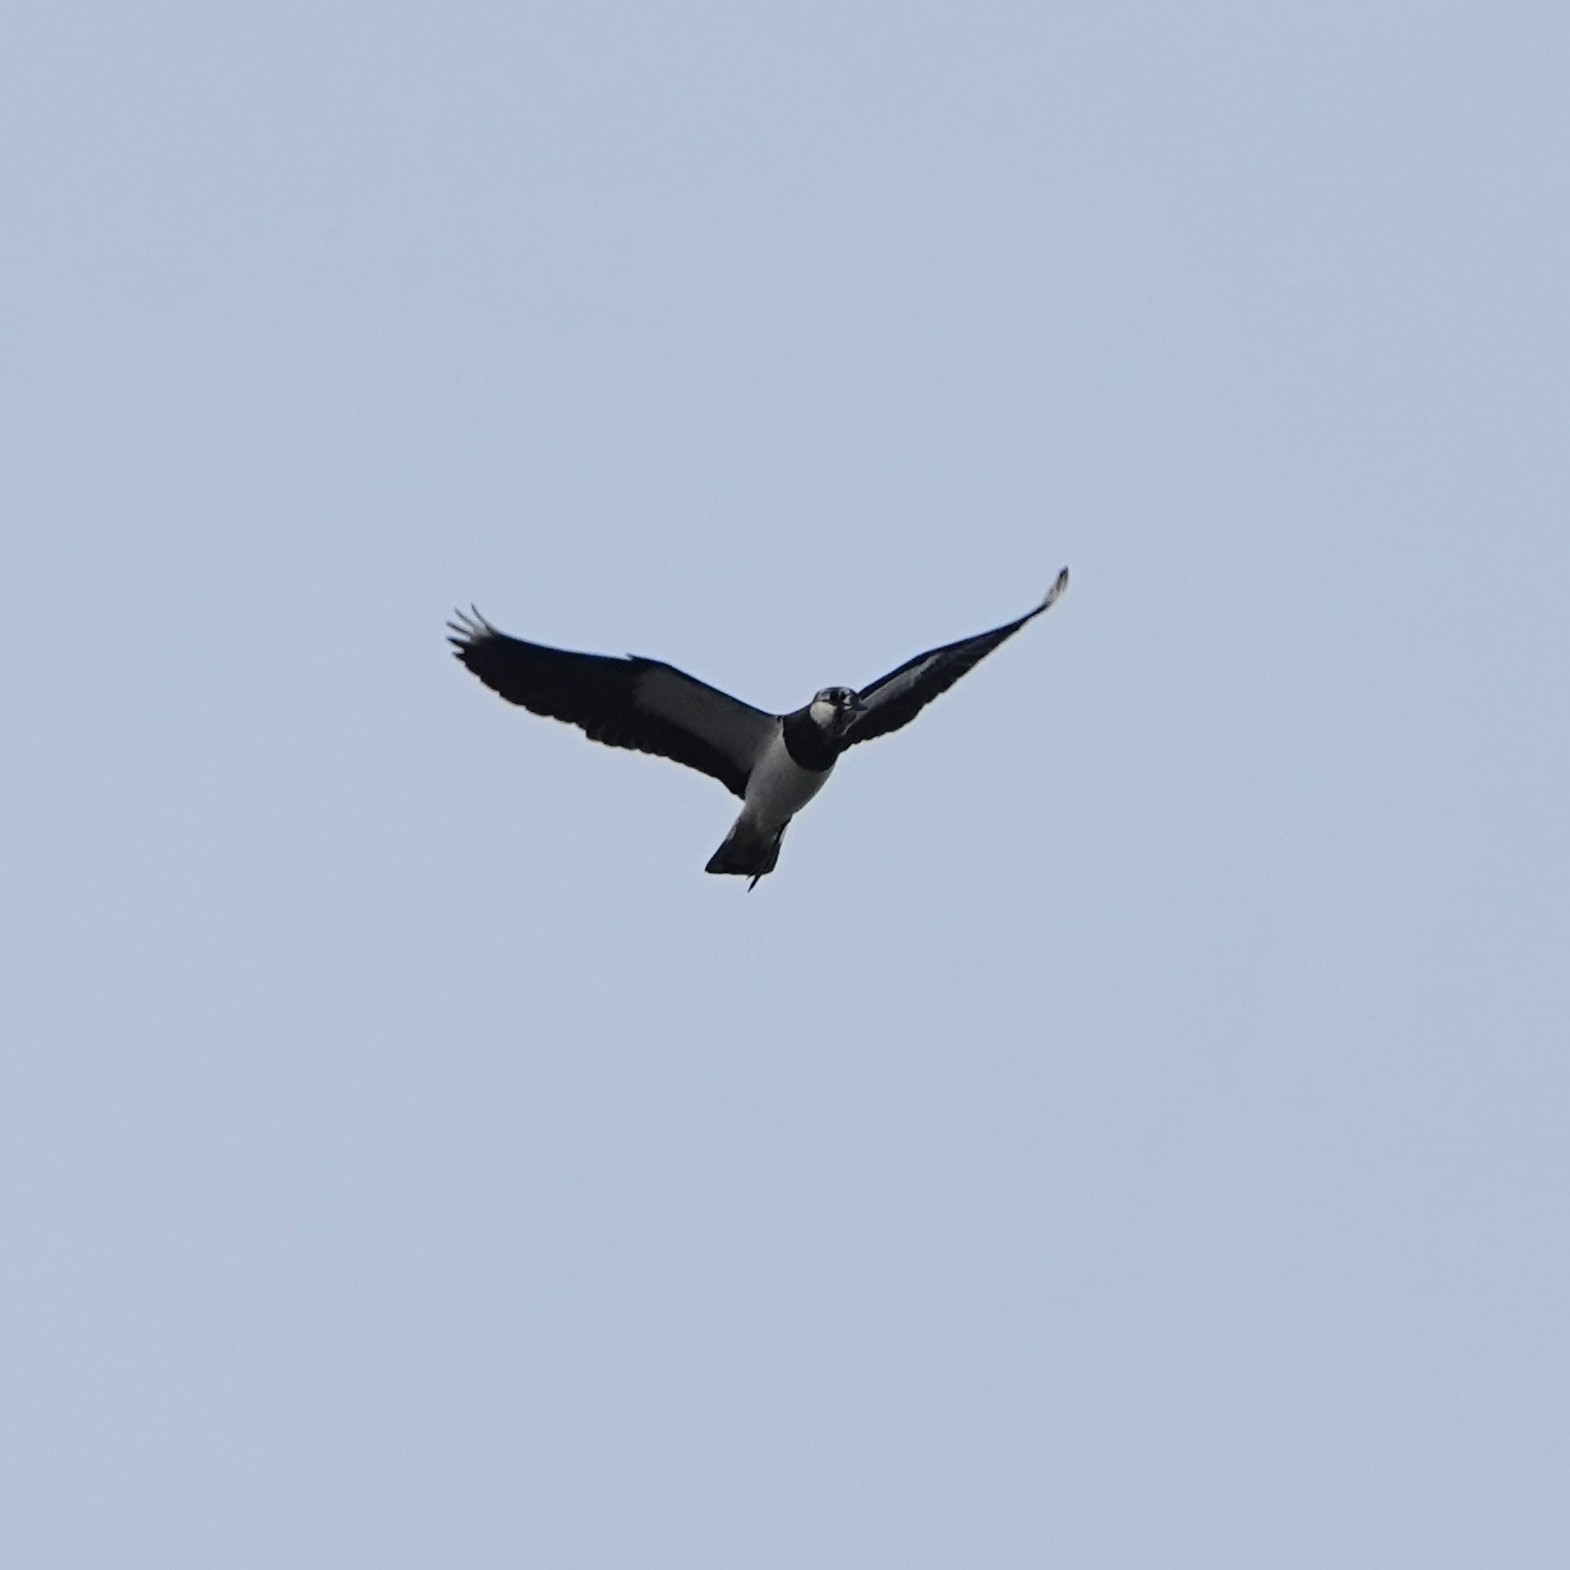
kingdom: Animalia
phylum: Chordata
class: Aves
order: Charadriiformes
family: Charadriidae
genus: Vanellus
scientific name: Vanellus vanellus
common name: Northern lapwing
